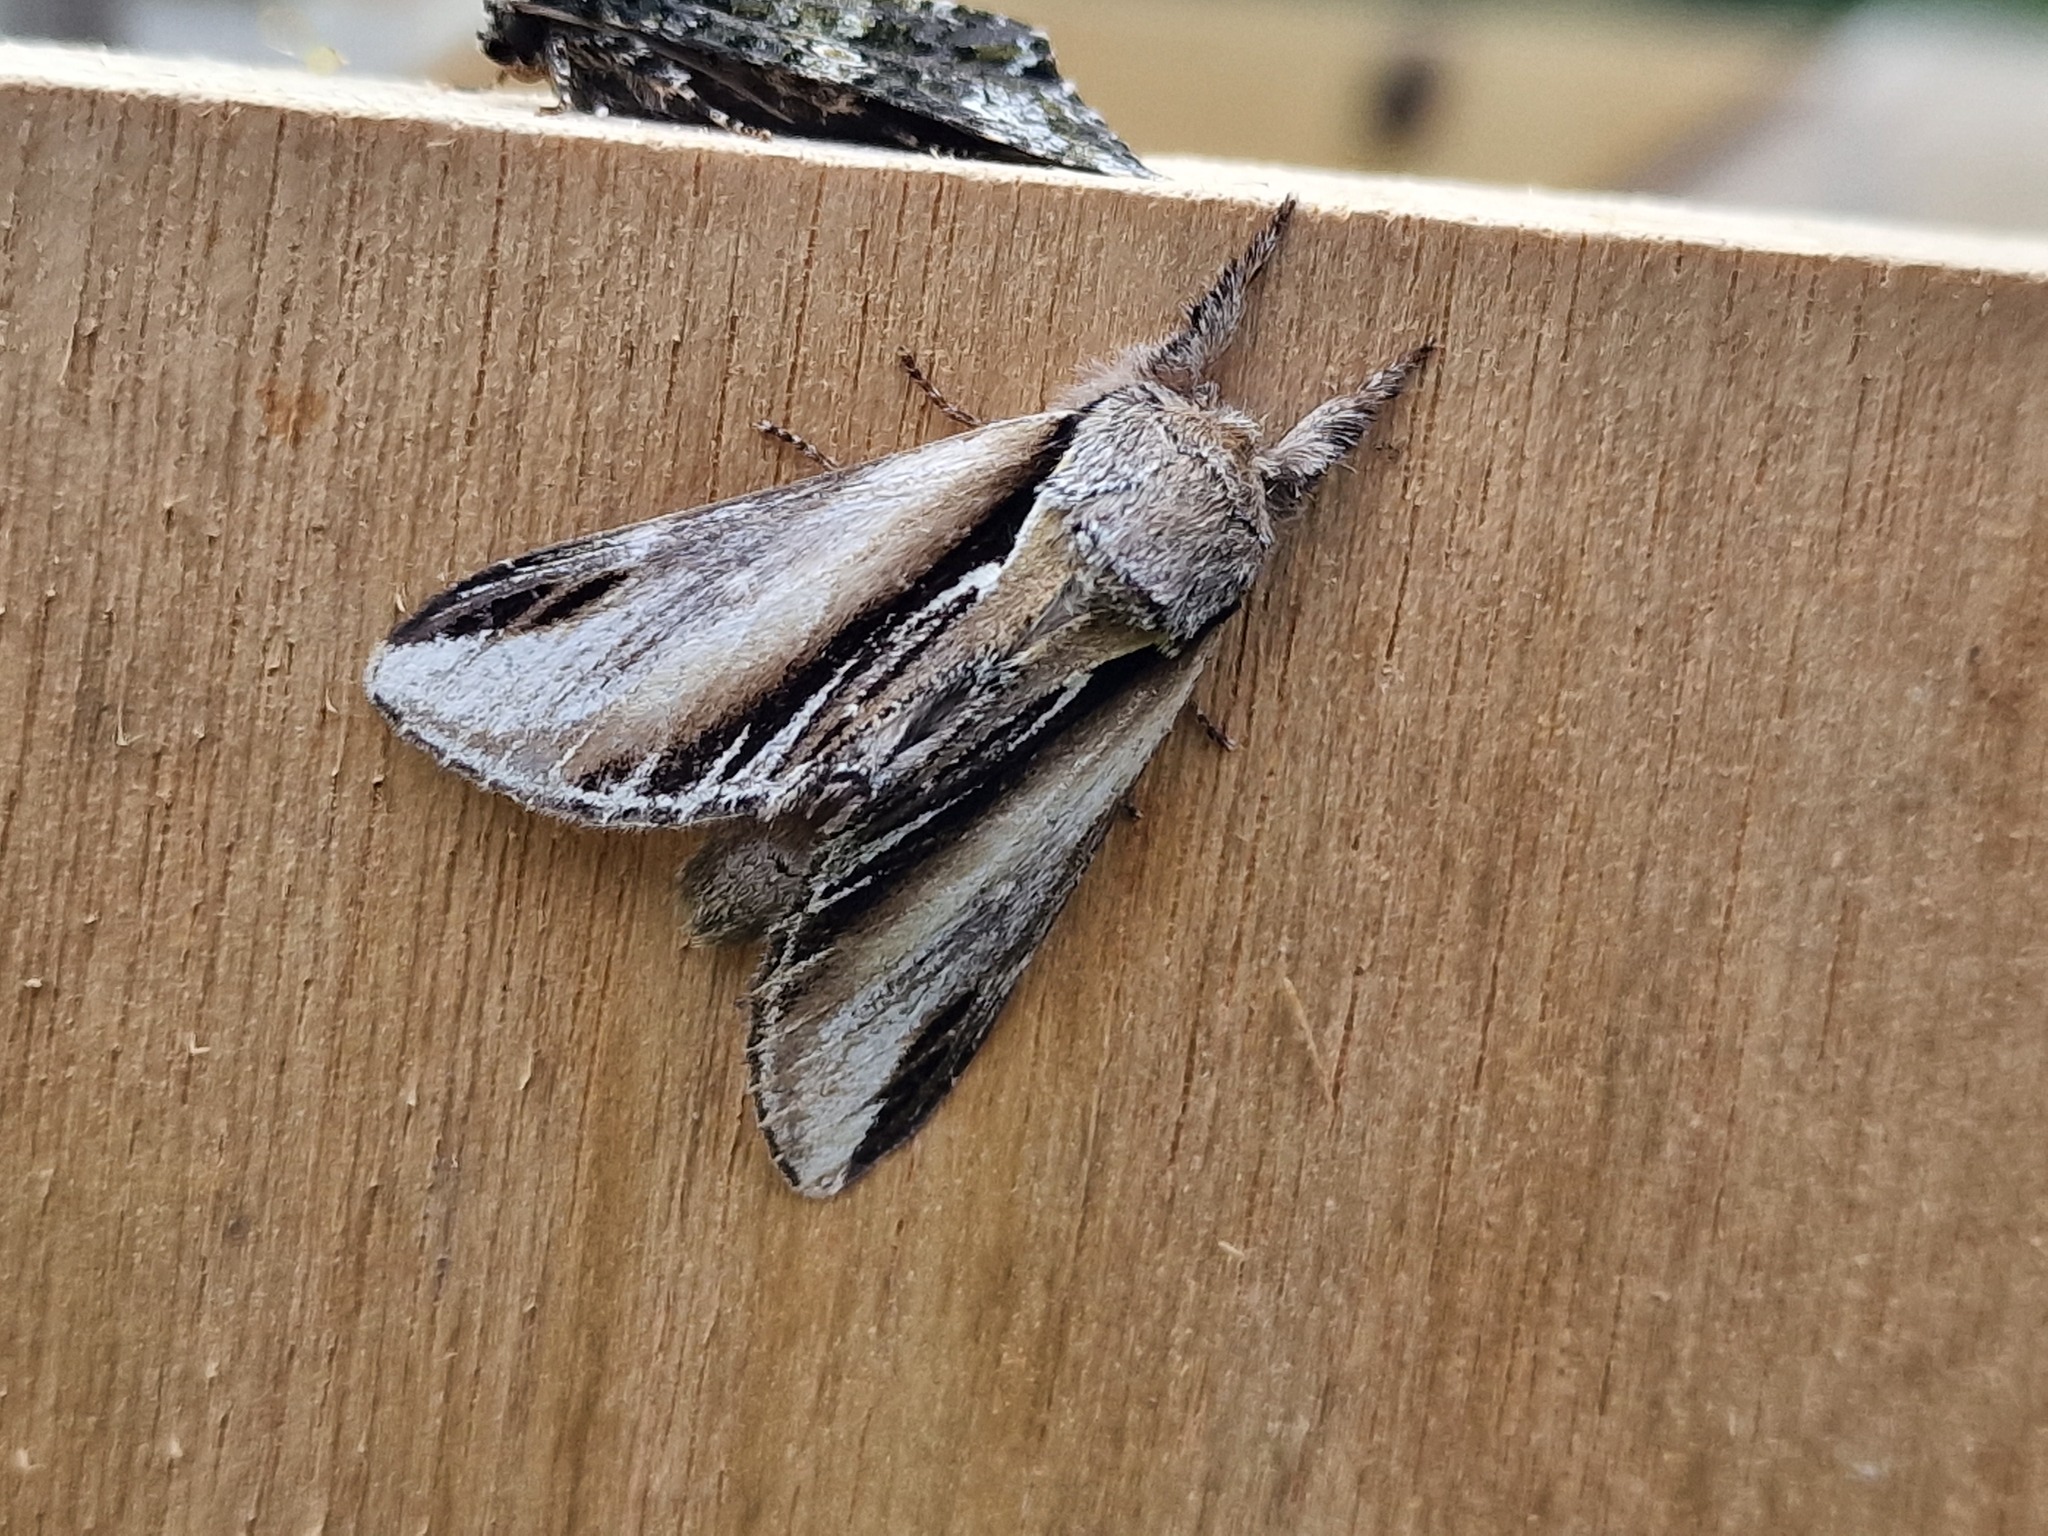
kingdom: Animalia
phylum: Arthropoda
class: Insecta
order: Lepidoptera
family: Notodontidae
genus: Pheosia
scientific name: Pheosia tremula
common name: Swallow prominent
